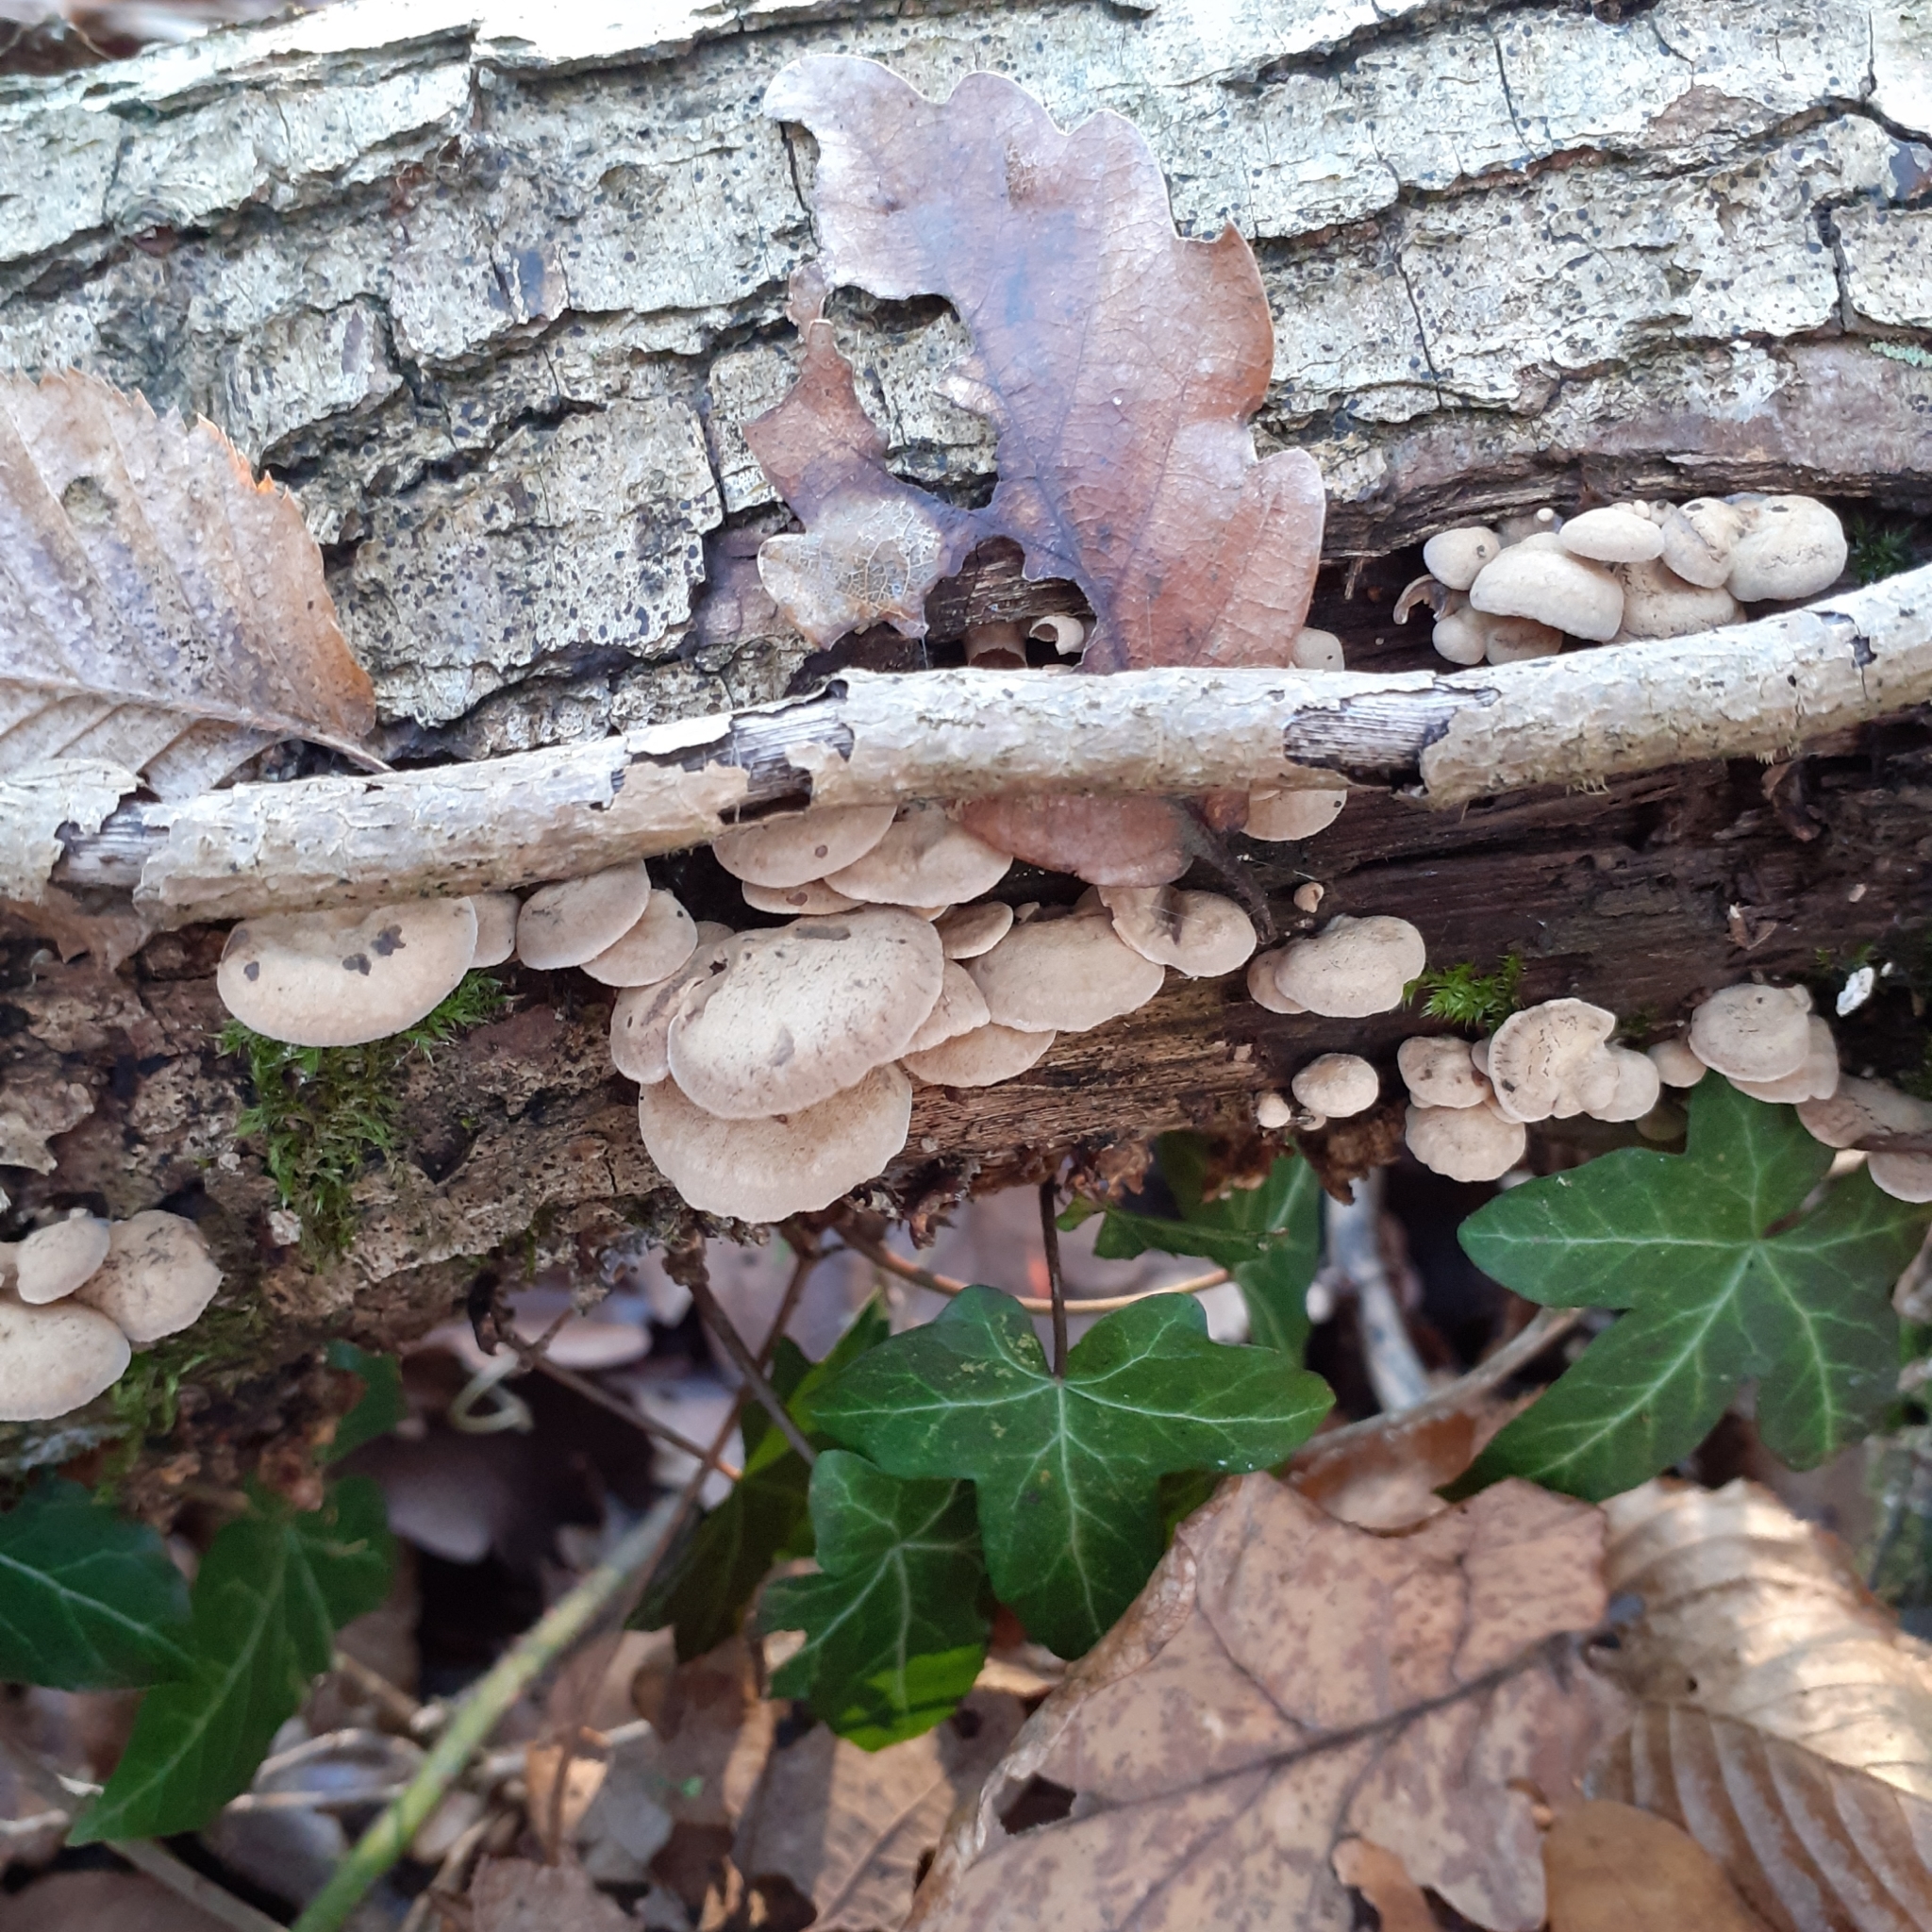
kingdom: Fungi
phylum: Basidiomycota
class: Agaricomycetes
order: Agaricales
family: Mycenaceae
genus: Panellus
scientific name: Panellus stipticus
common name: Bitter oysterling
